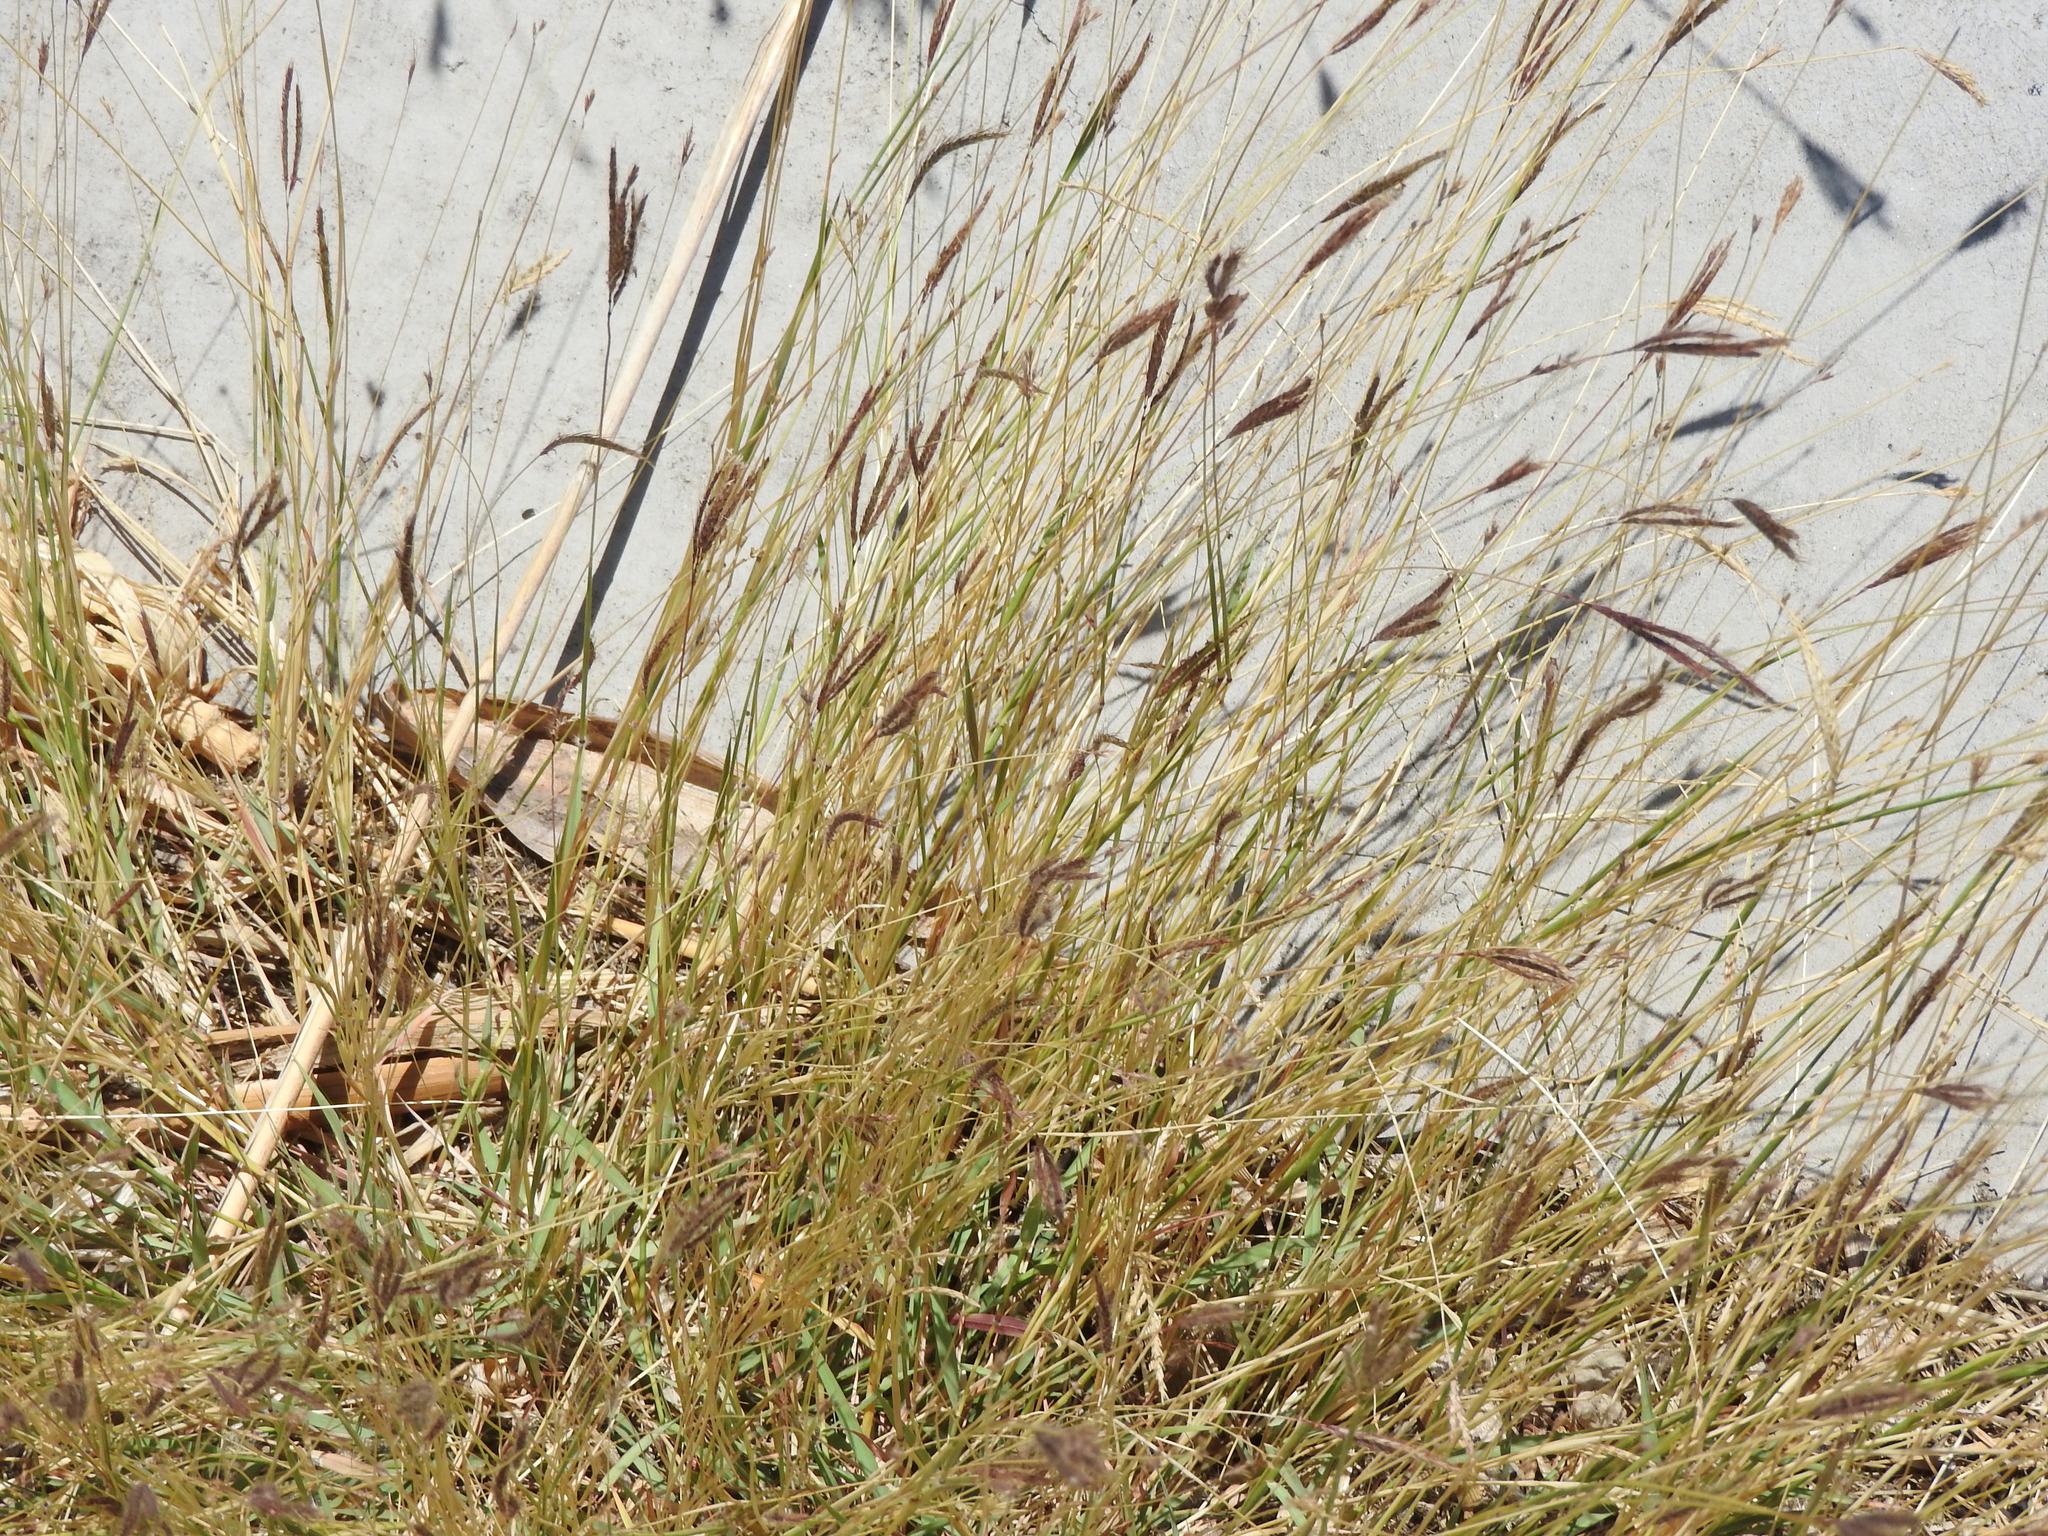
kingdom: Plantae
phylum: Tracheophyta
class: Liliopsida
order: Poales
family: Poaceae
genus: Chloris
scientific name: Chloris barbata
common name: Swollen fingergrass
